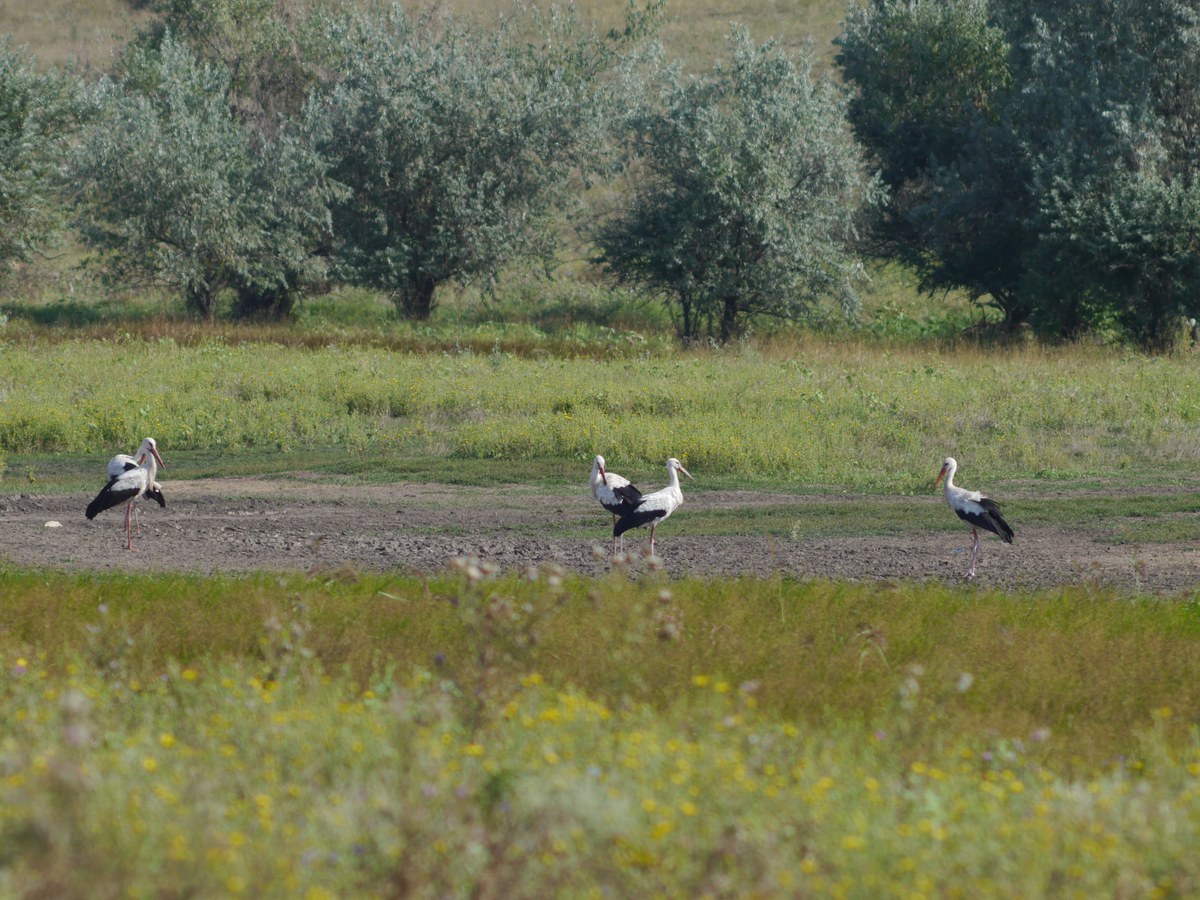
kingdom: Animalia
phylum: Chordata
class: Aves
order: Ciconiiformes
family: Ciconiidae
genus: Ciconia
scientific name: Ciconia ciconia
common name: White stork
